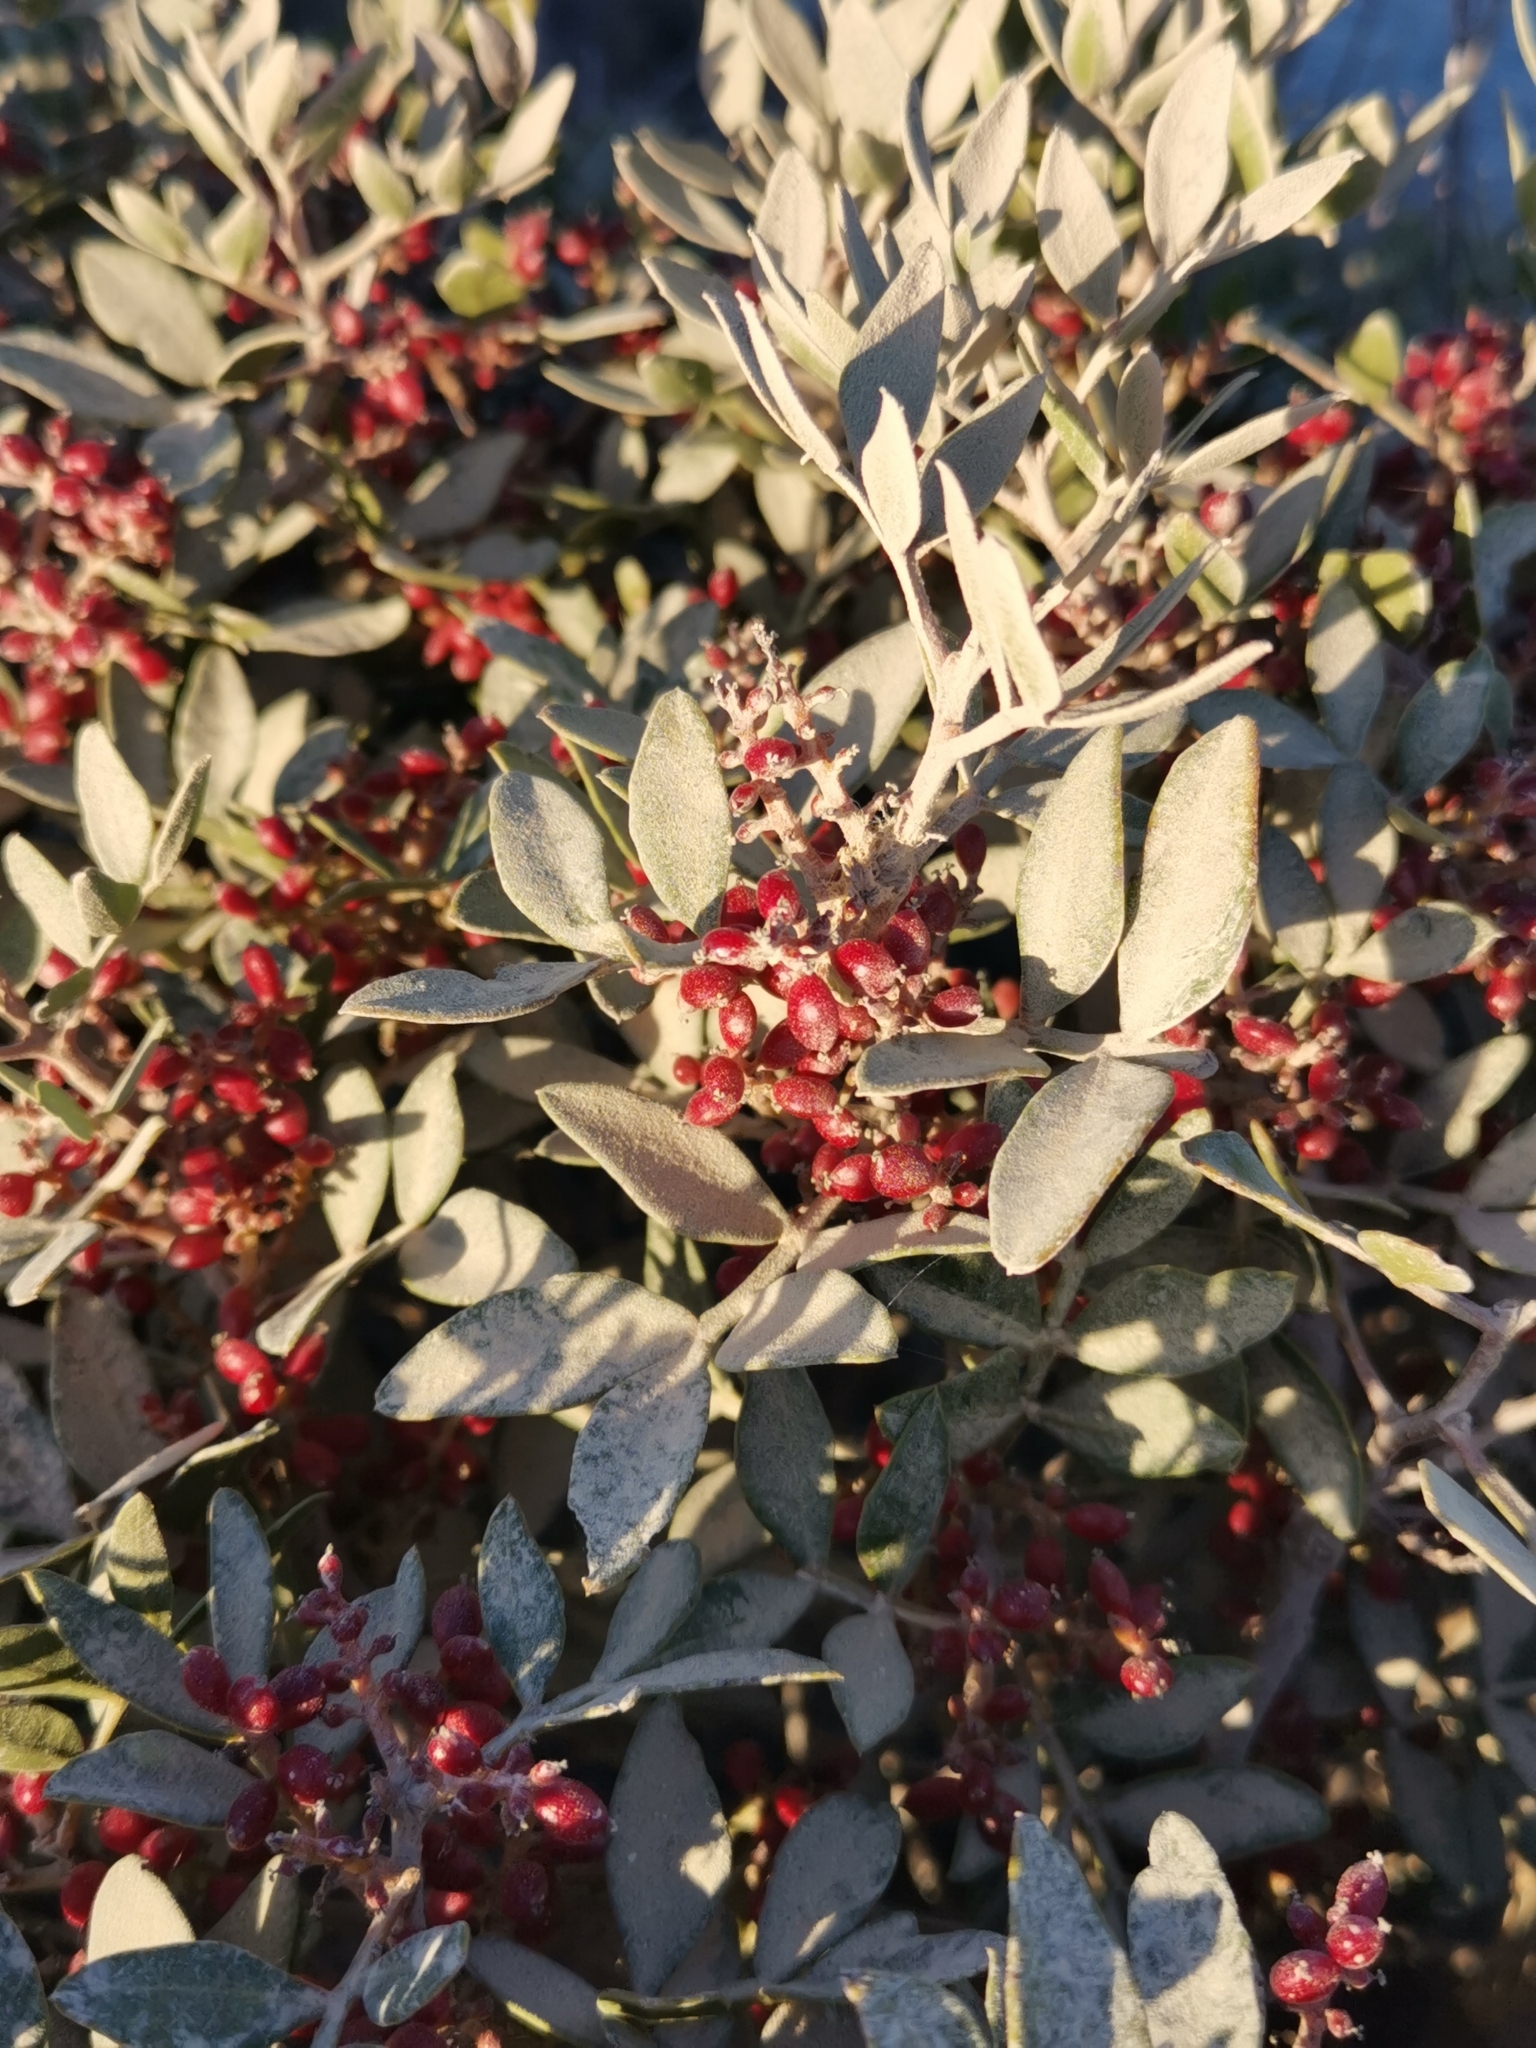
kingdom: Plantae
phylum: Tracheophyta
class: Magnoliopsida
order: Sapindales
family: Anacardiaceae
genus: Pistacia
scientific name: Pistacia lentiscus
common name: Lentisk
